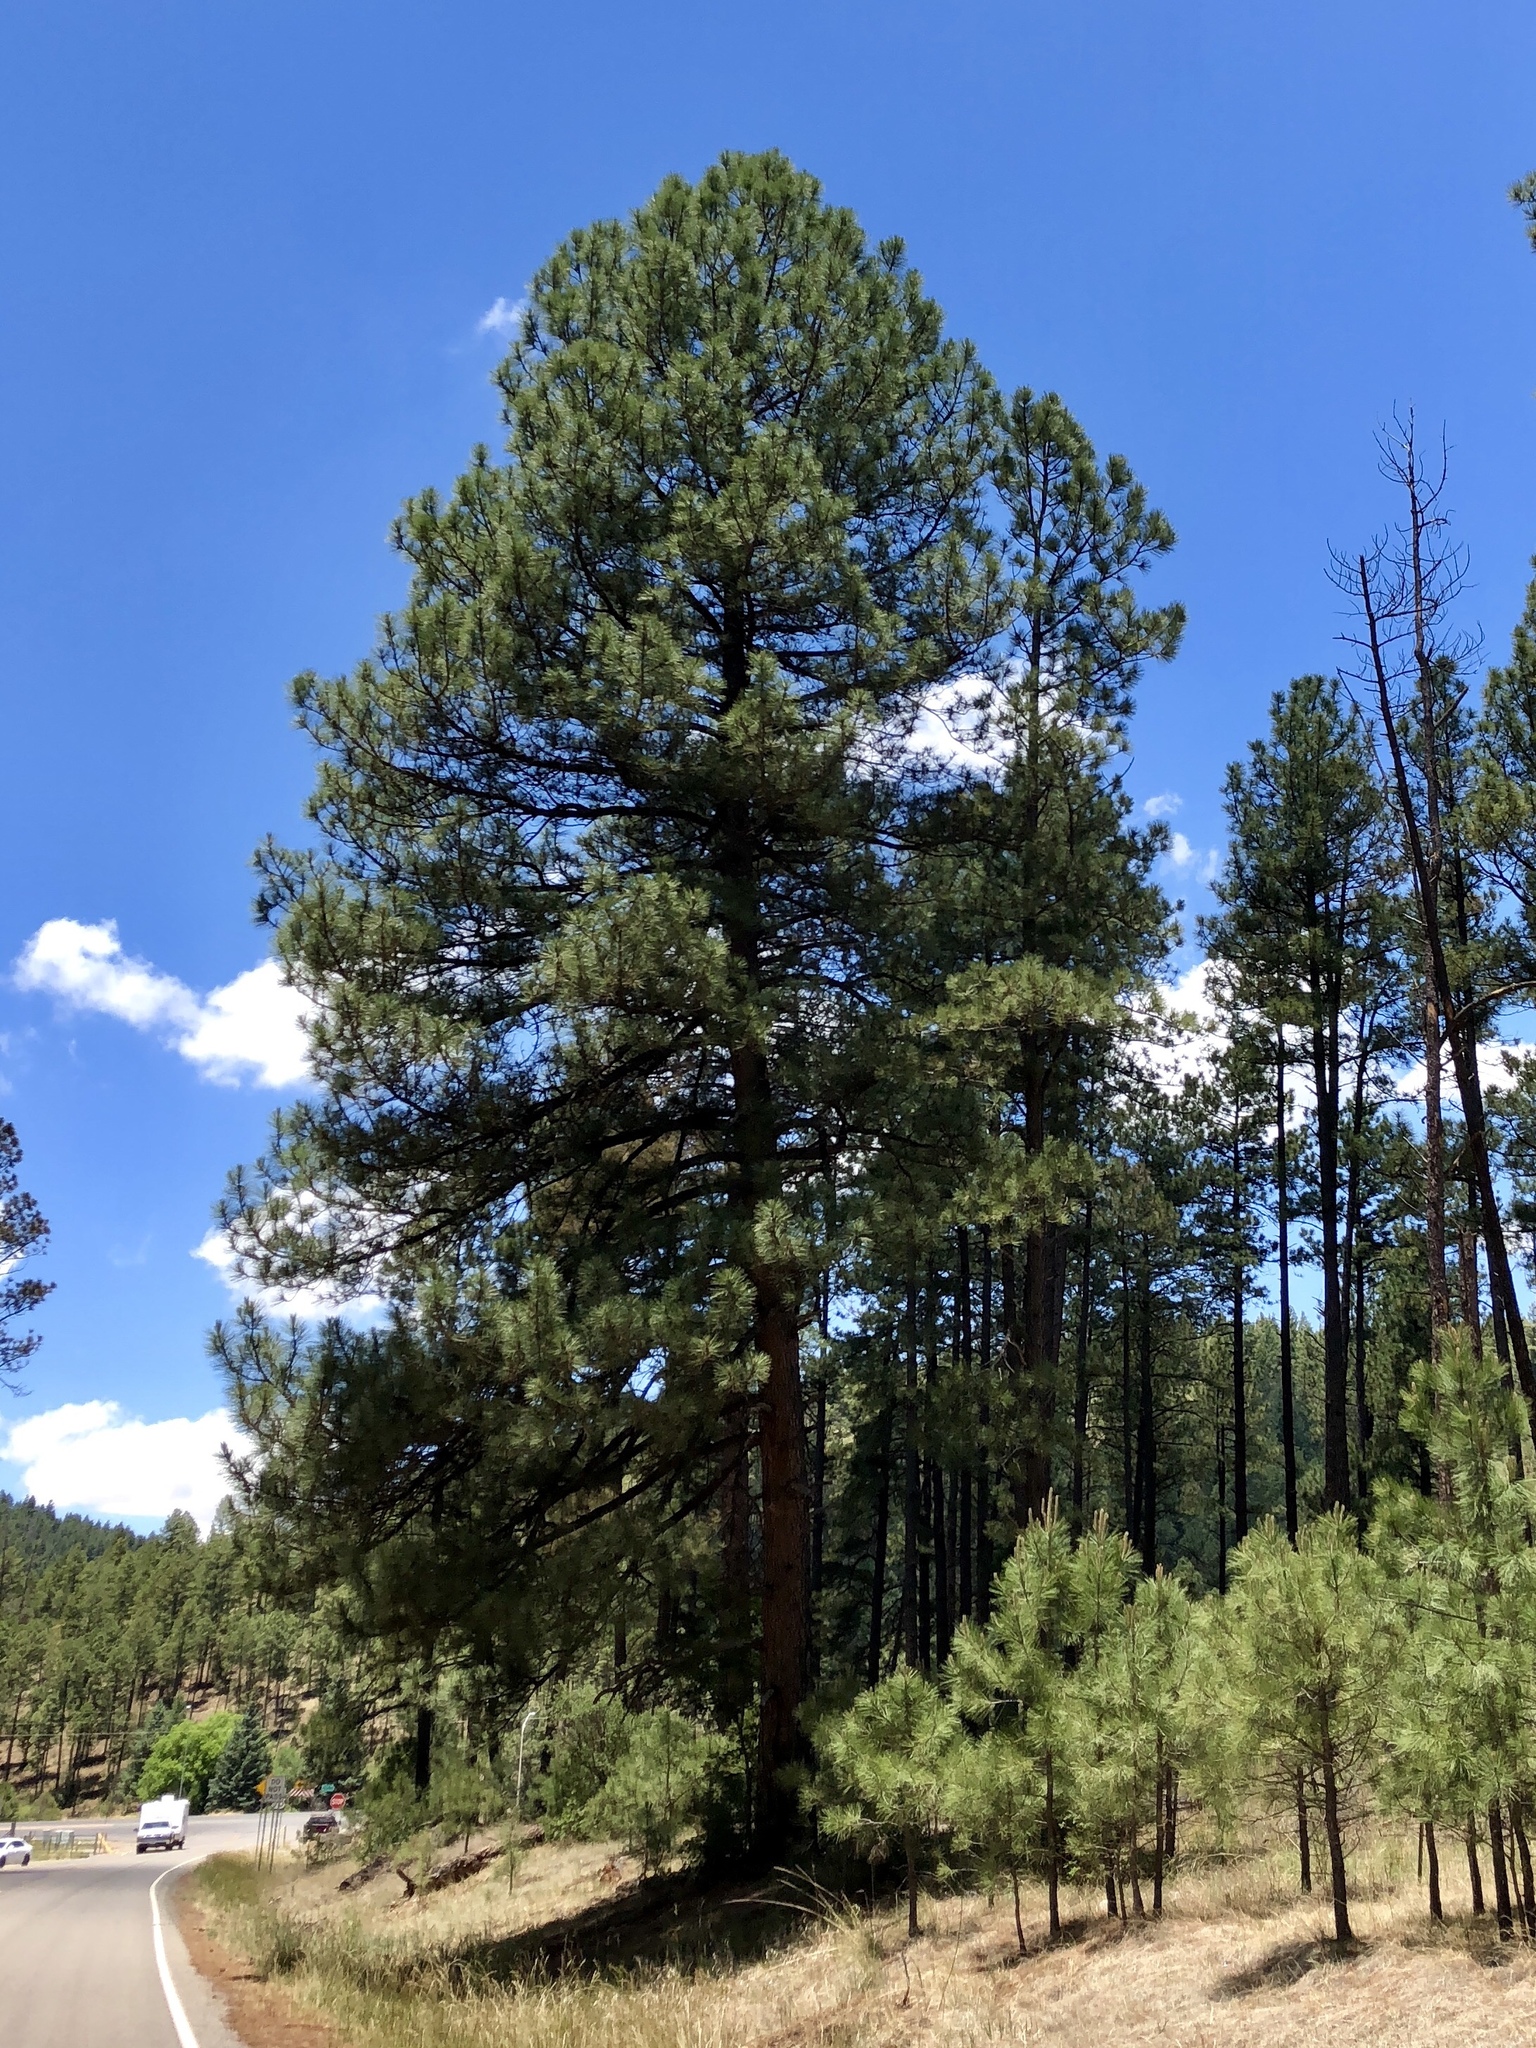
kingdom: Plantae
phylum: Tracheophyta
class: Pinopsida
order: Pinales
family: Pinaceae
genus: Pinus
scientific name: Pinus ponderosa
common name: Western yellow-pine
